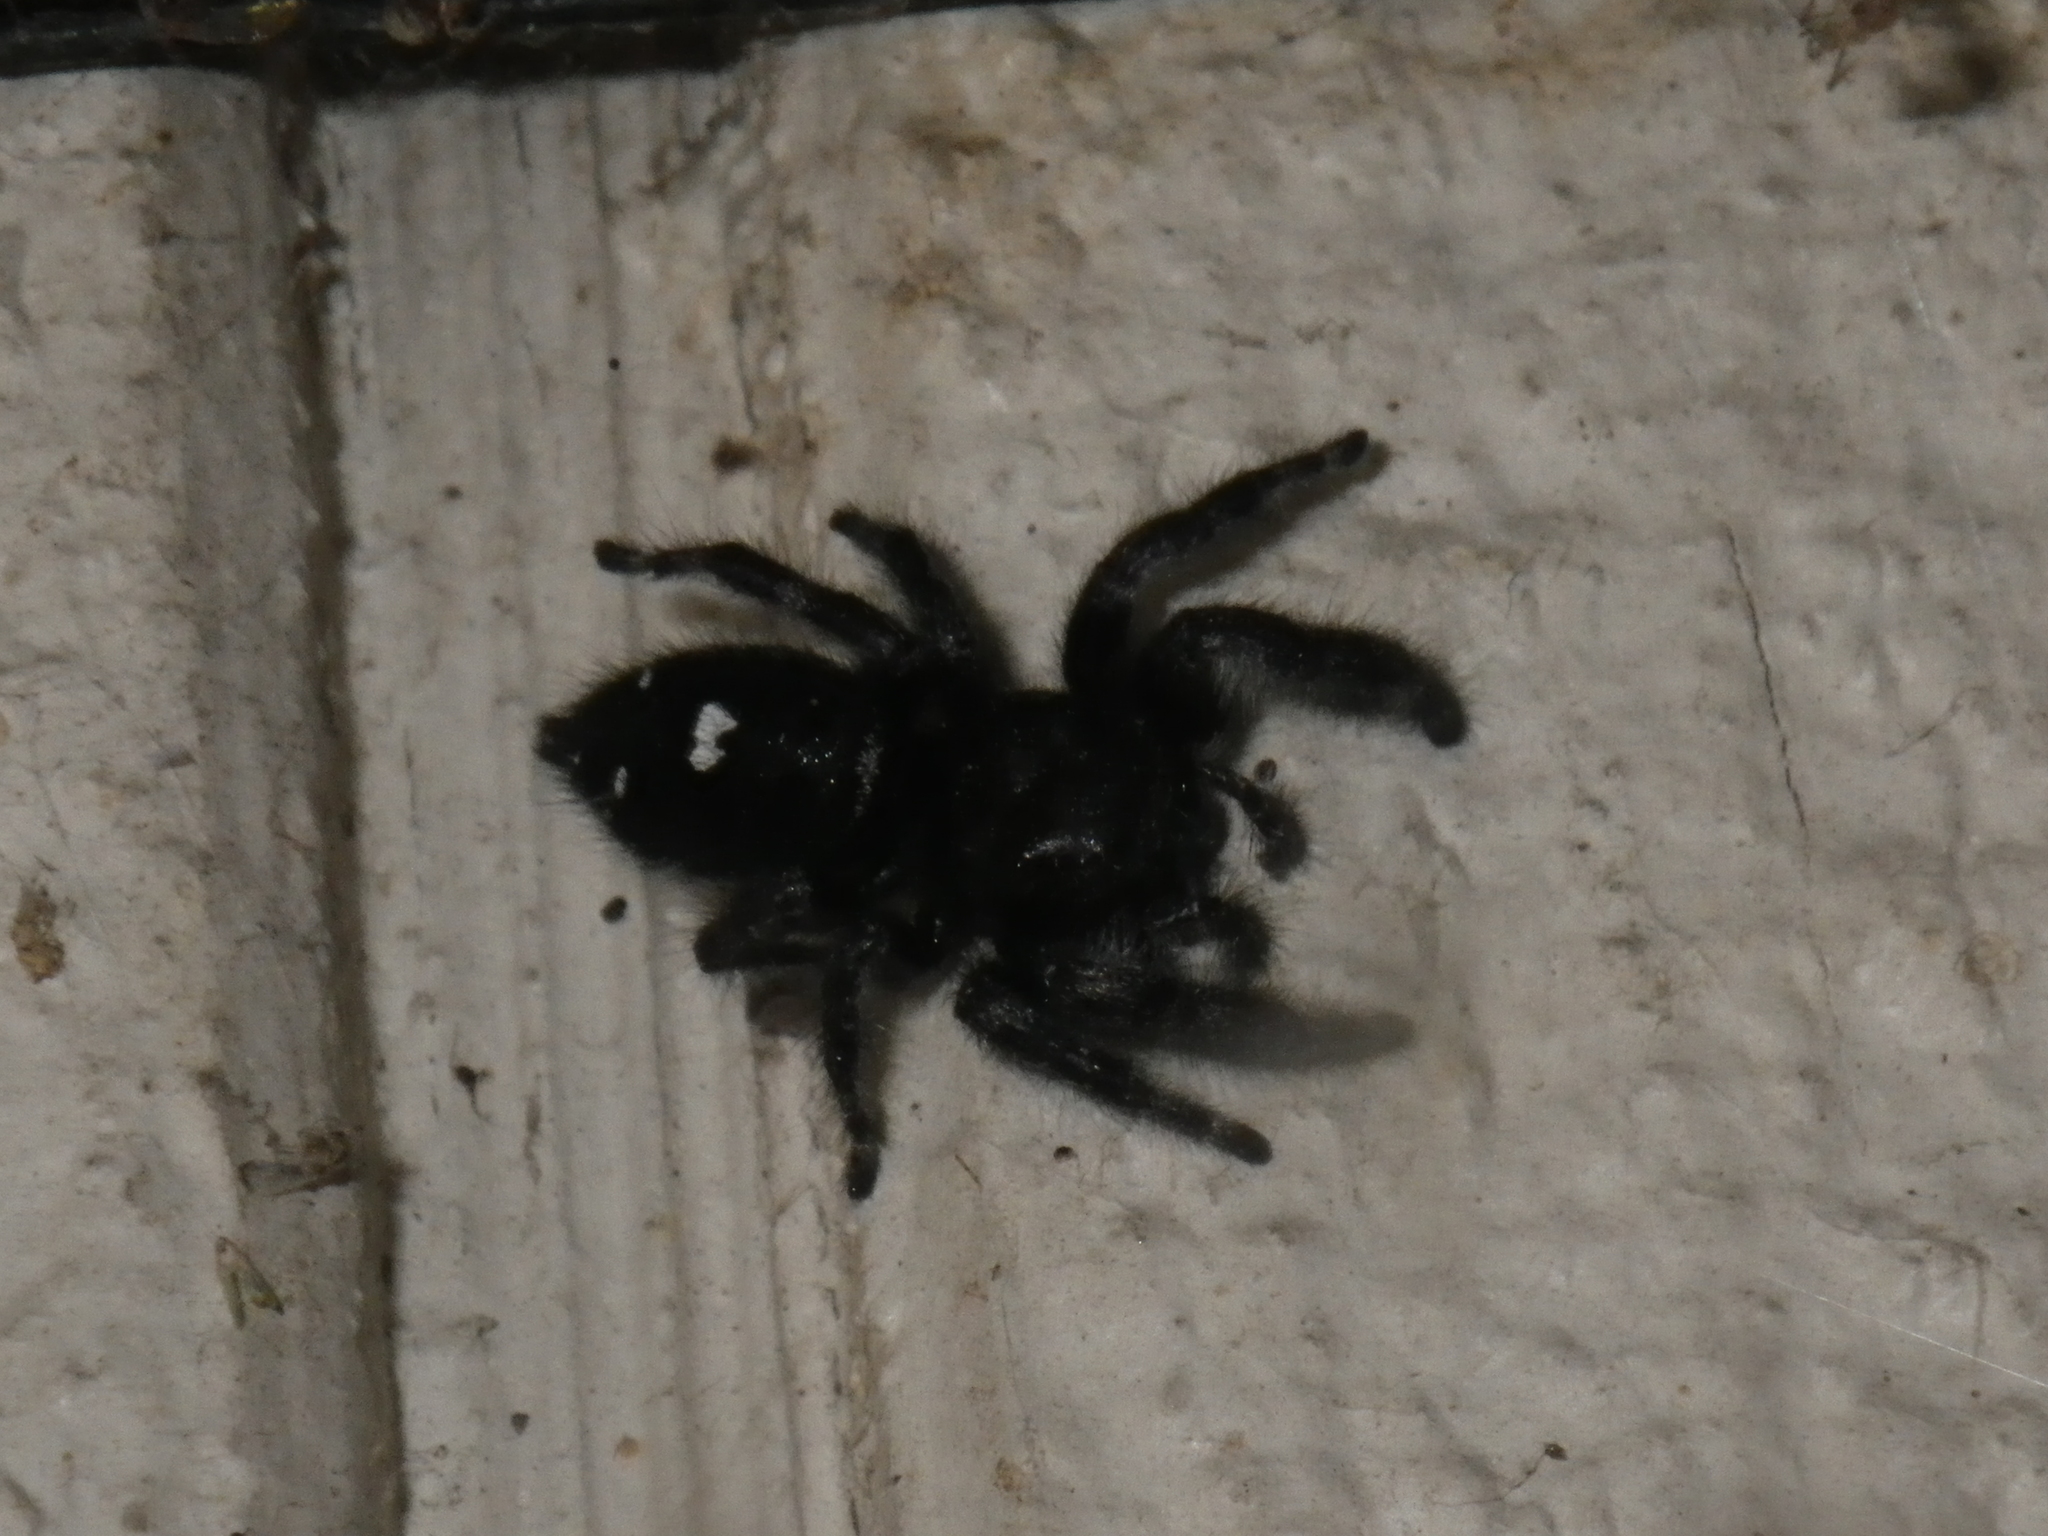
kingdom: Animalia
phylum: Arthropoda
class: Arachnida
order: Araneae
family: Salticidae
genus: Phidippus
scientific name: Phidippus audax
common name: Bold jumper
